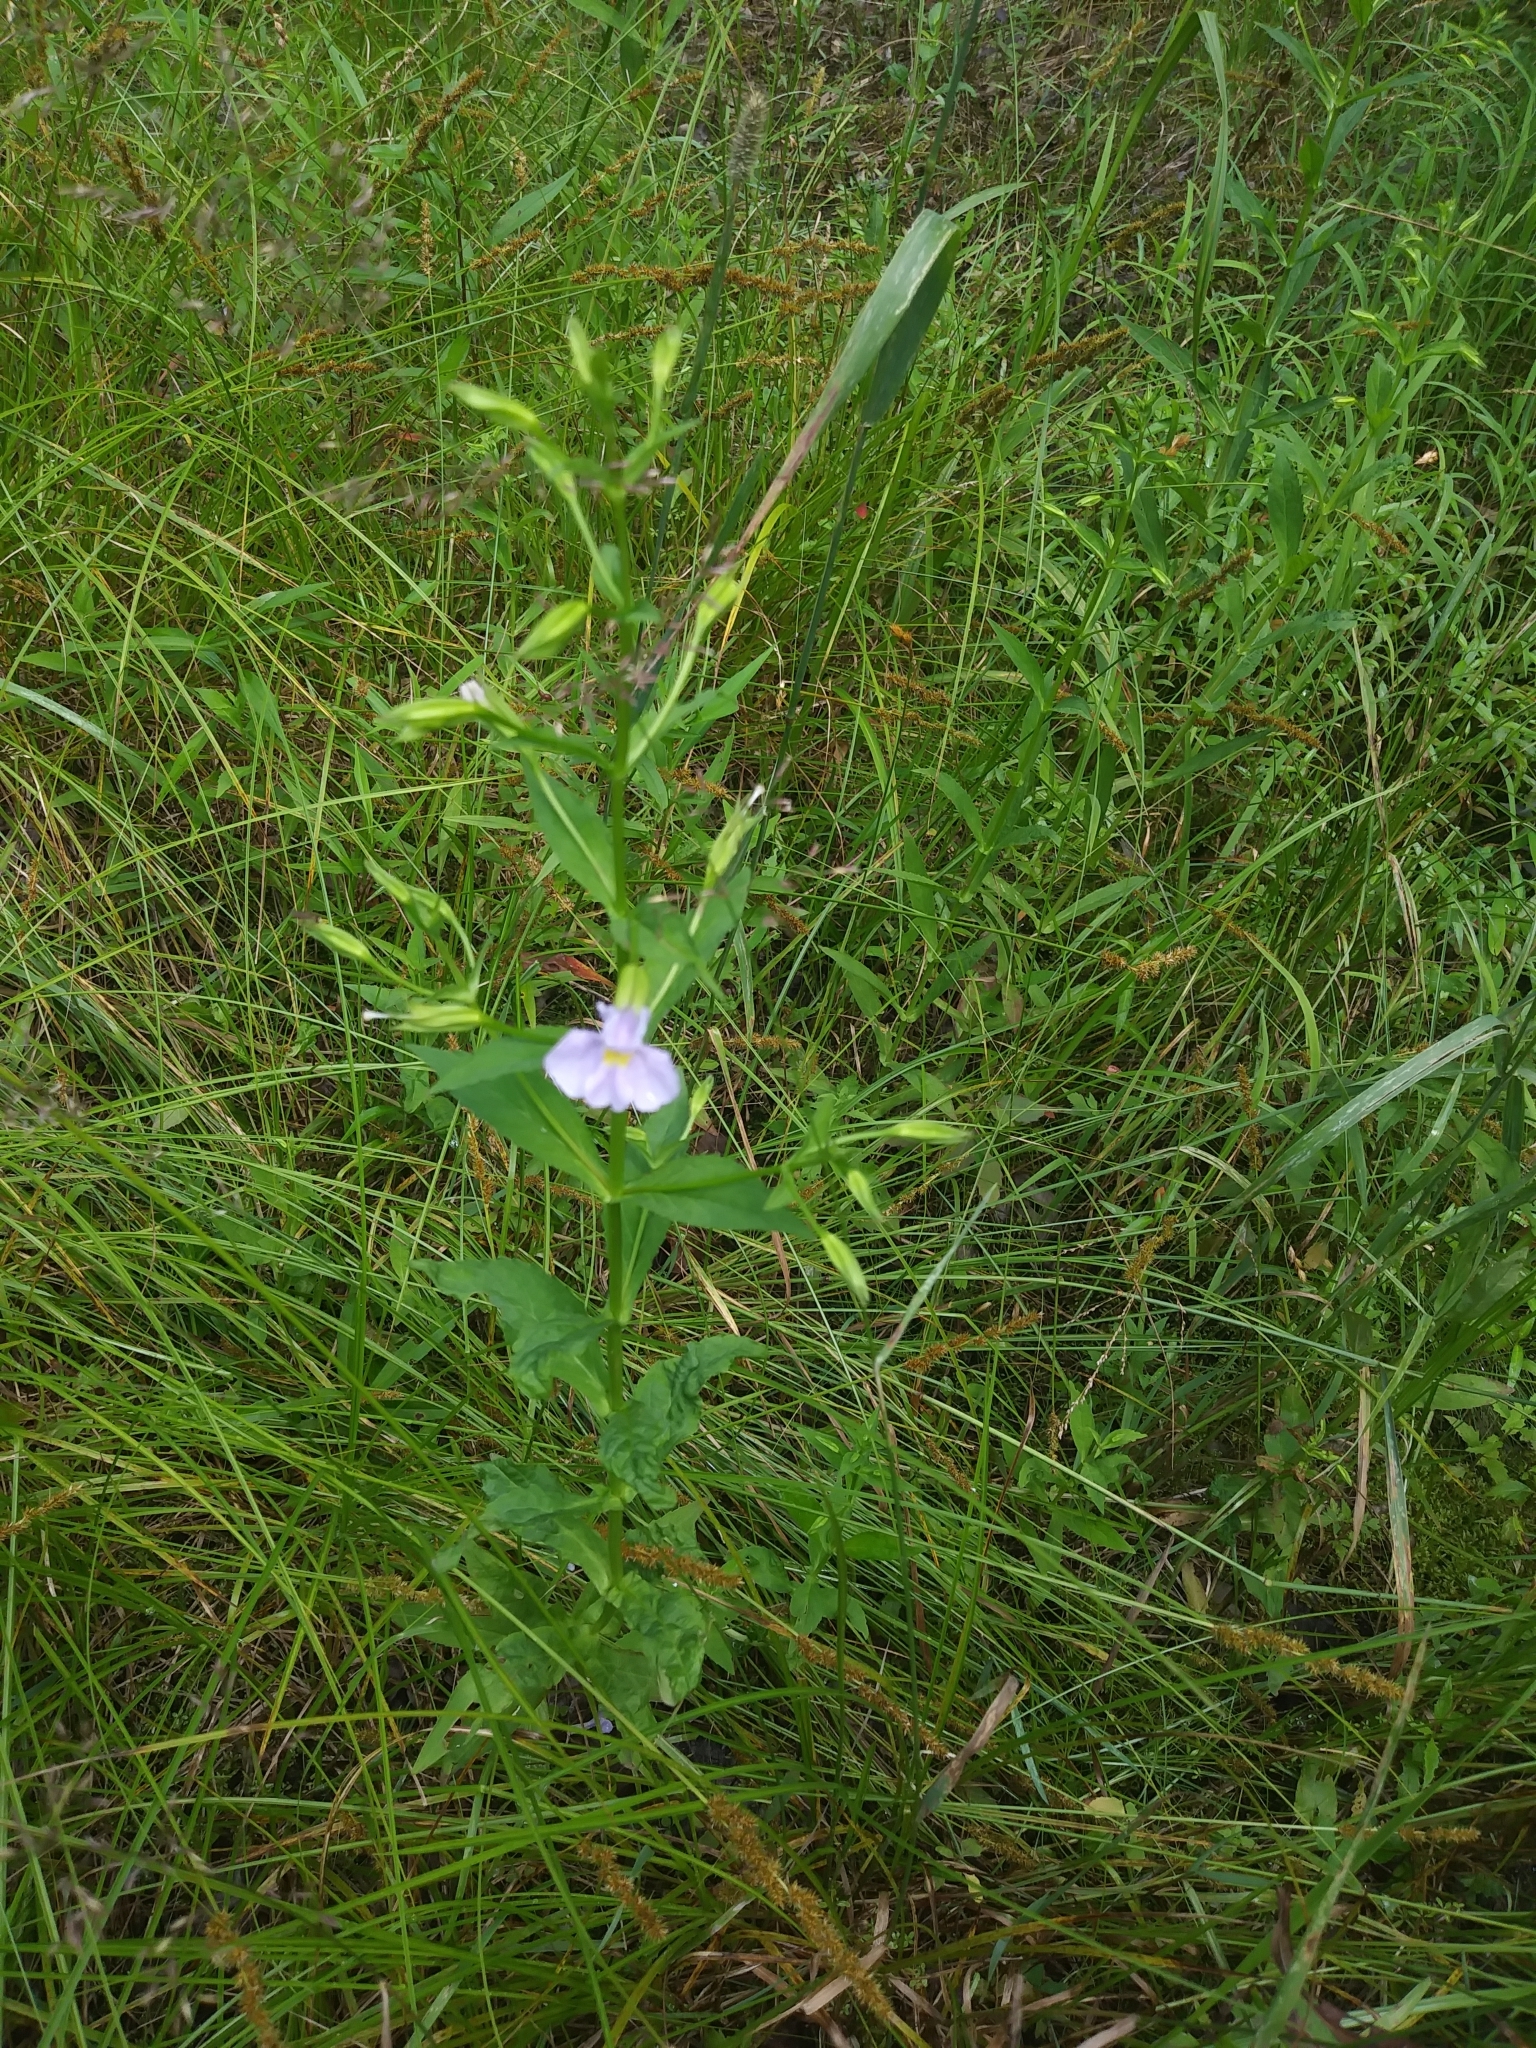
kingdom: Plantae
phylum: Tracheophyta
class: Magnoliopsida
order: Lamiales
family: Phrymaceae
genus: Mimulus
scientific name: Mimulus ringens
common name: Allegheny monkeyflower
